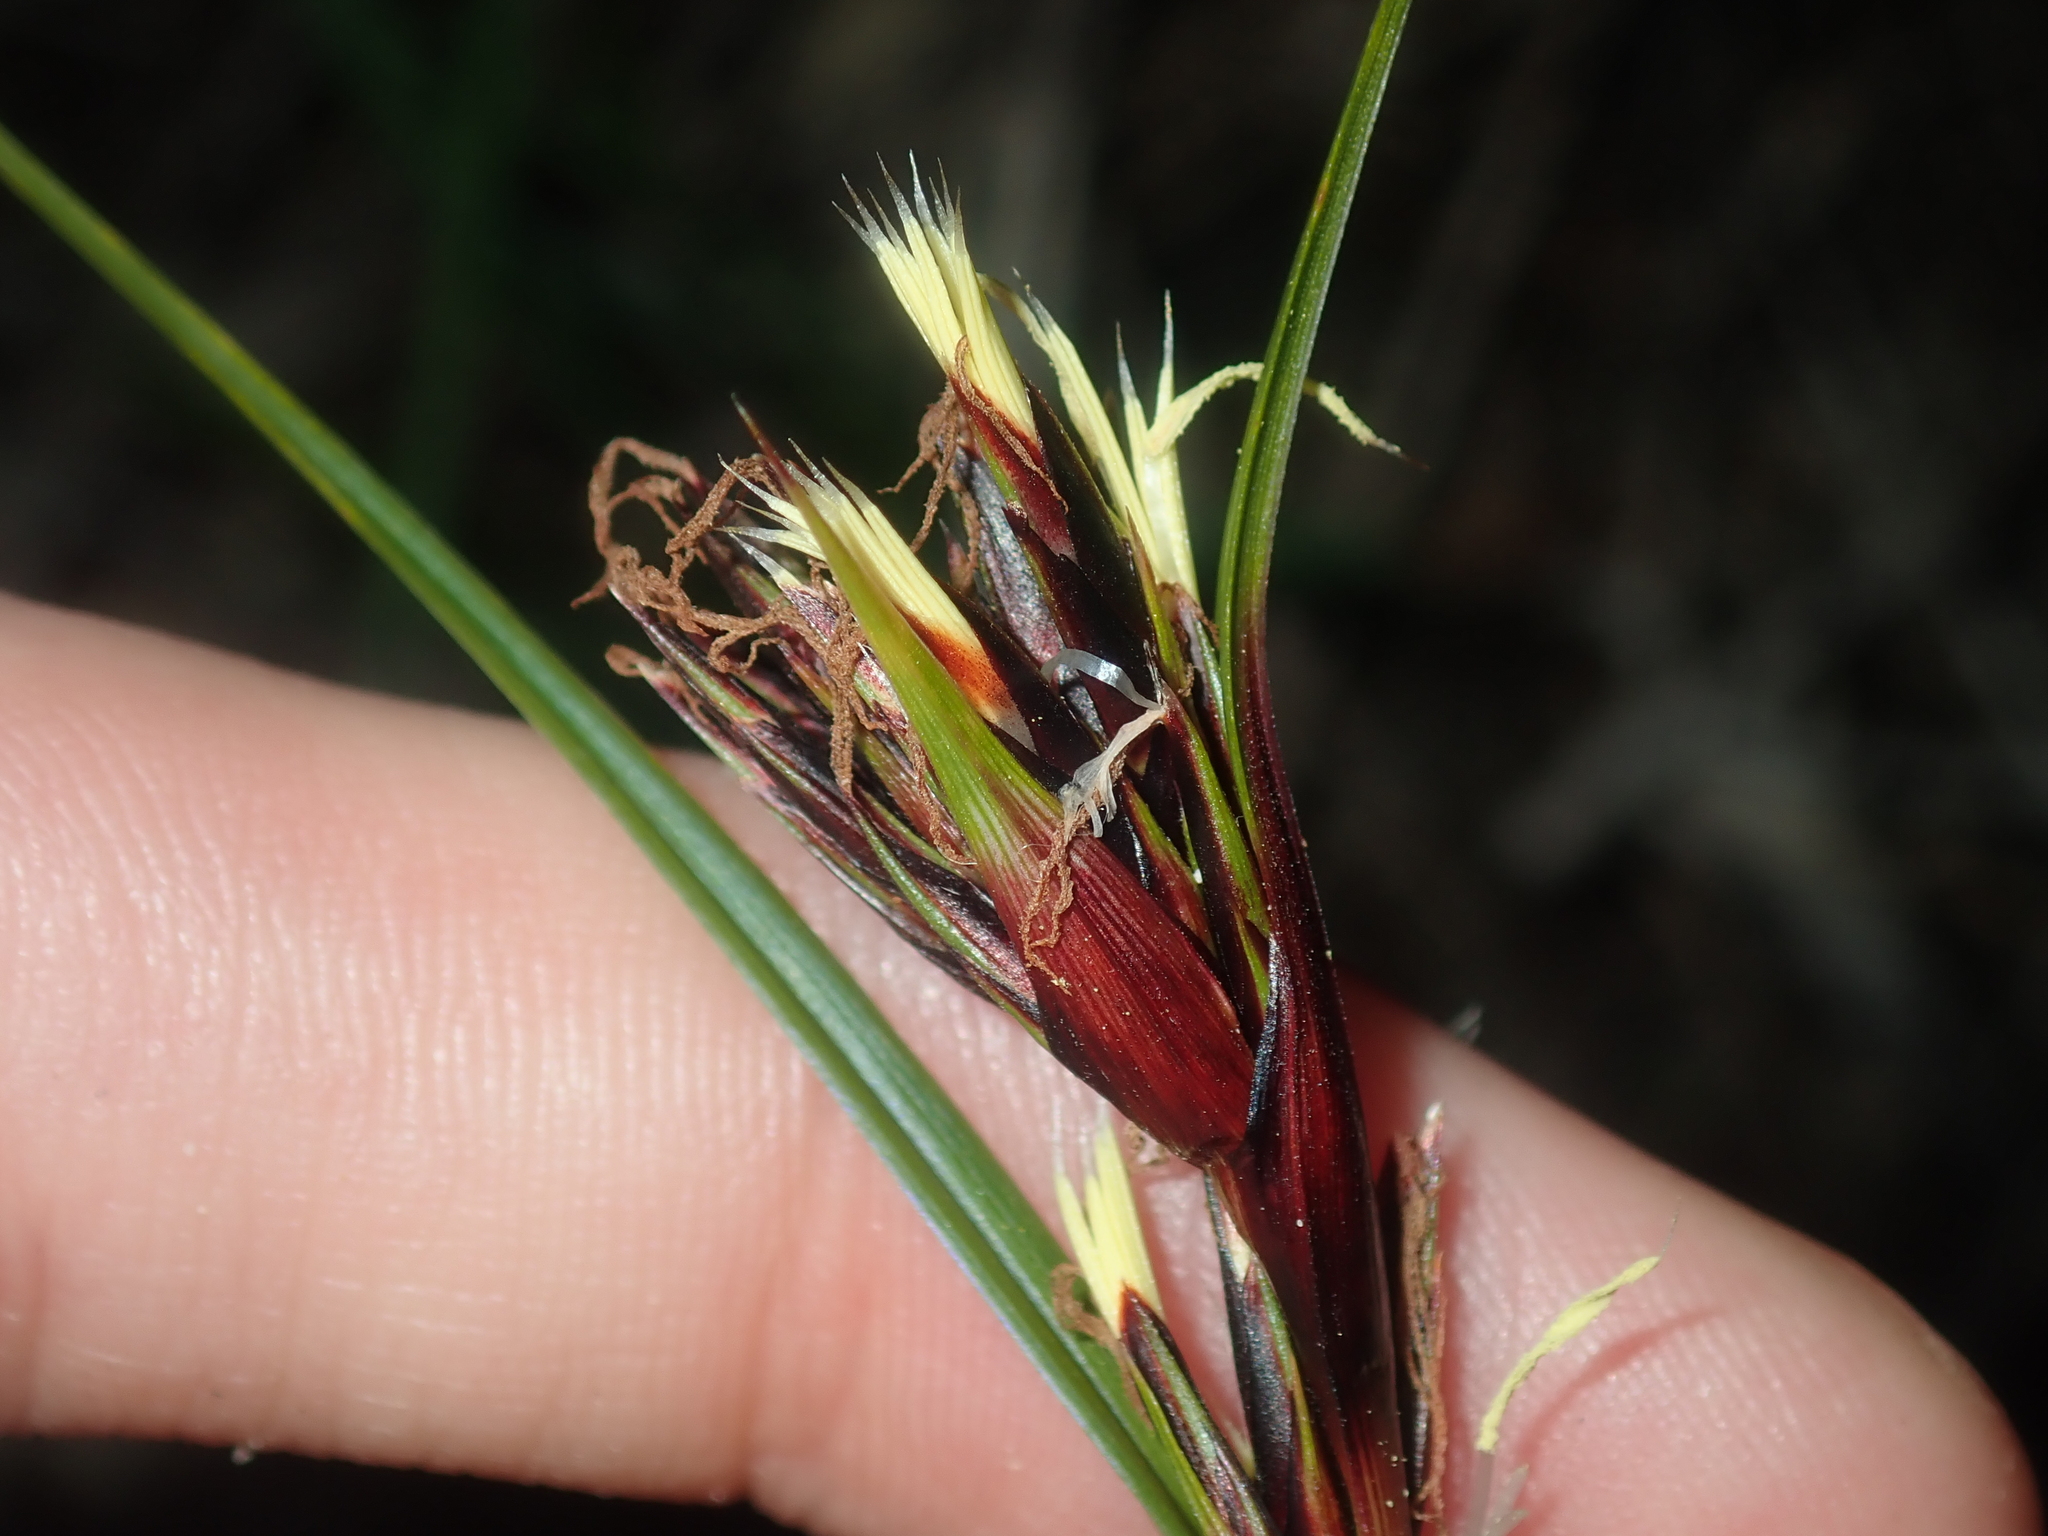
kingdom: Plantae
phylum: Tracheophyta
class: Liliopsida
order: Poales
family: Cyperaceae
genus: Morelotia
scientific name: Morelotia
